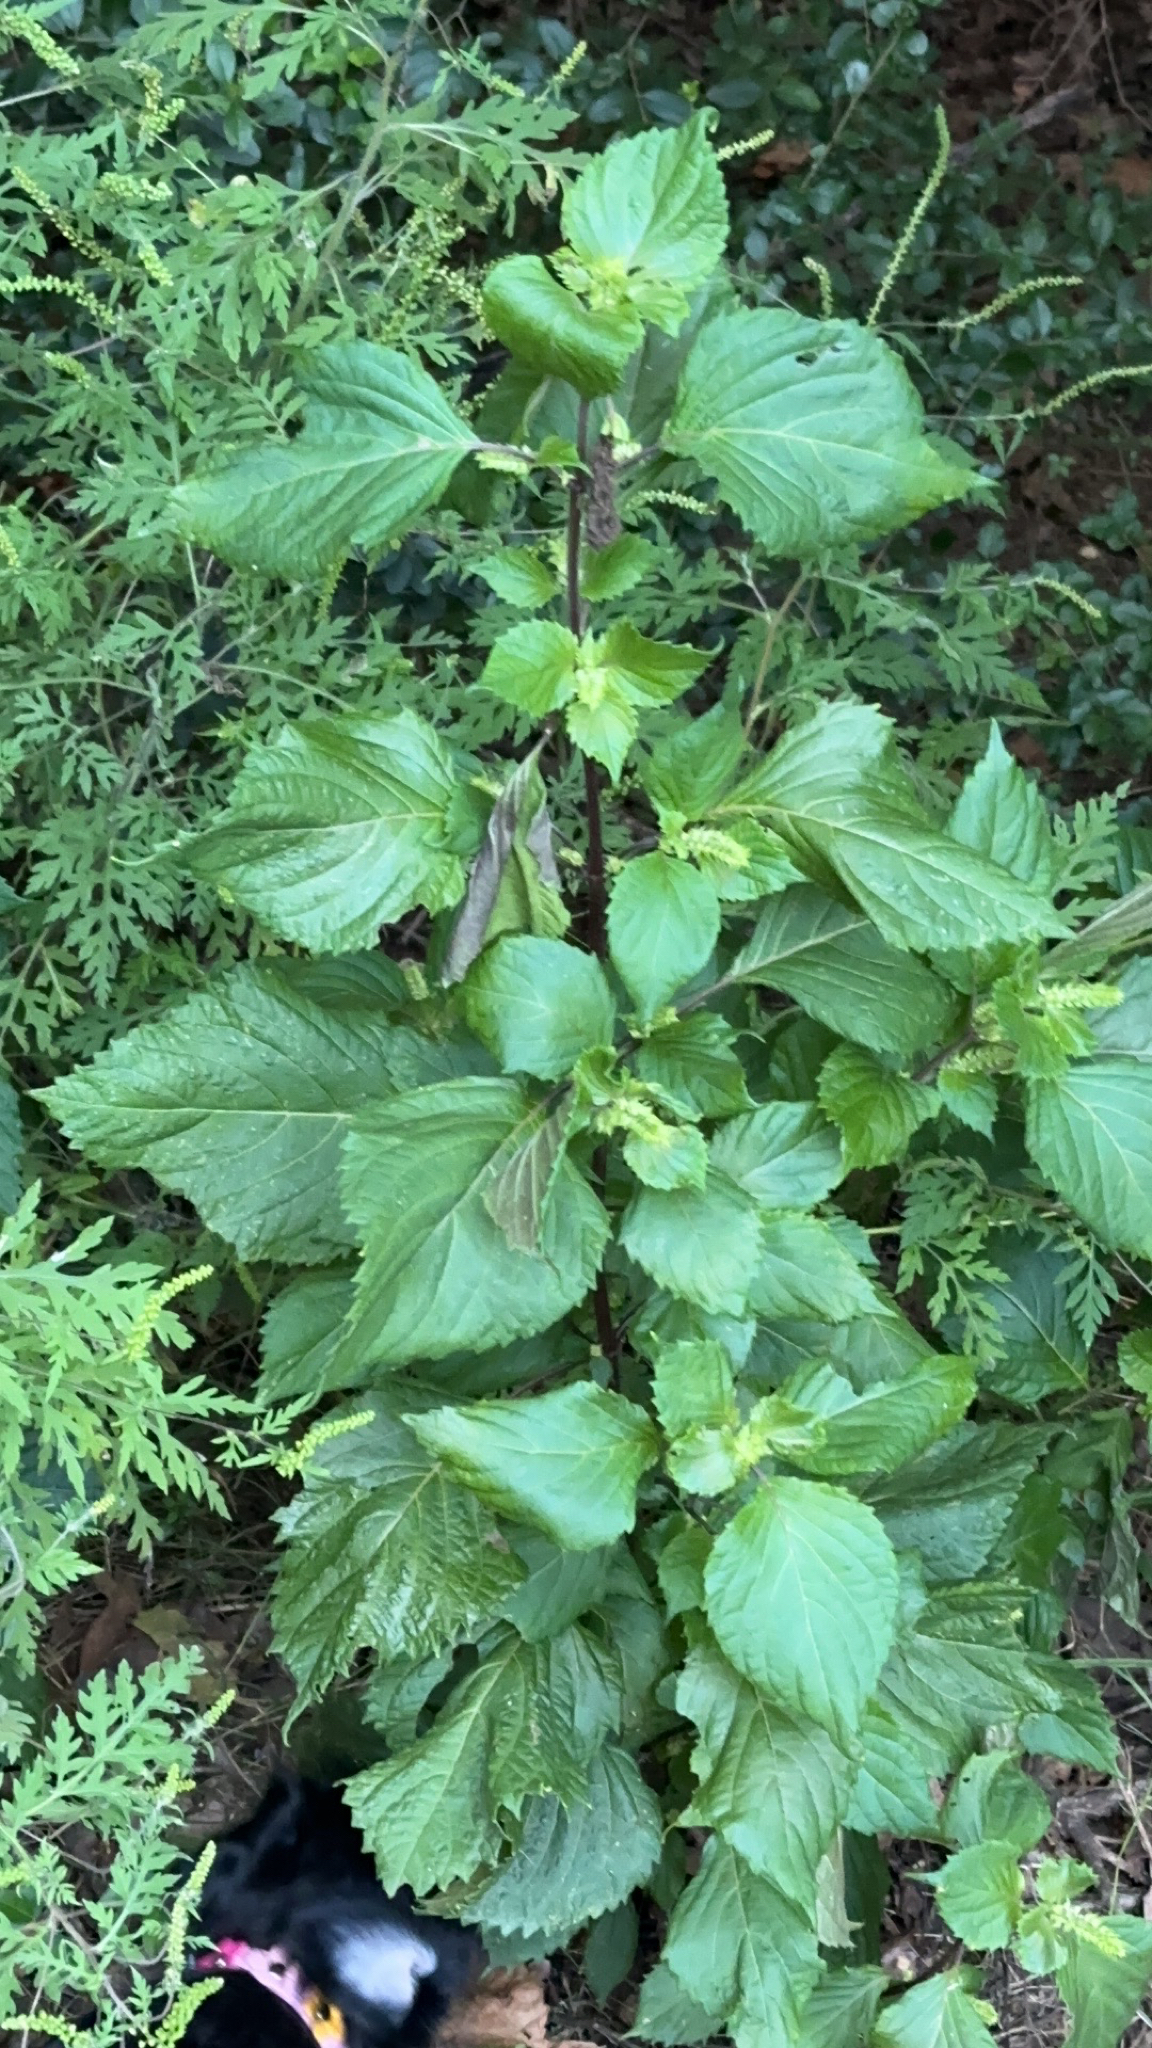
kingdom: Plantae
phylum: Tracheophyta
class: Magnoliopsida
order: Lamiales
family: Lamiaceae
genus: Perilla
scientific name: Perilla frutescens
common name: Perilla
